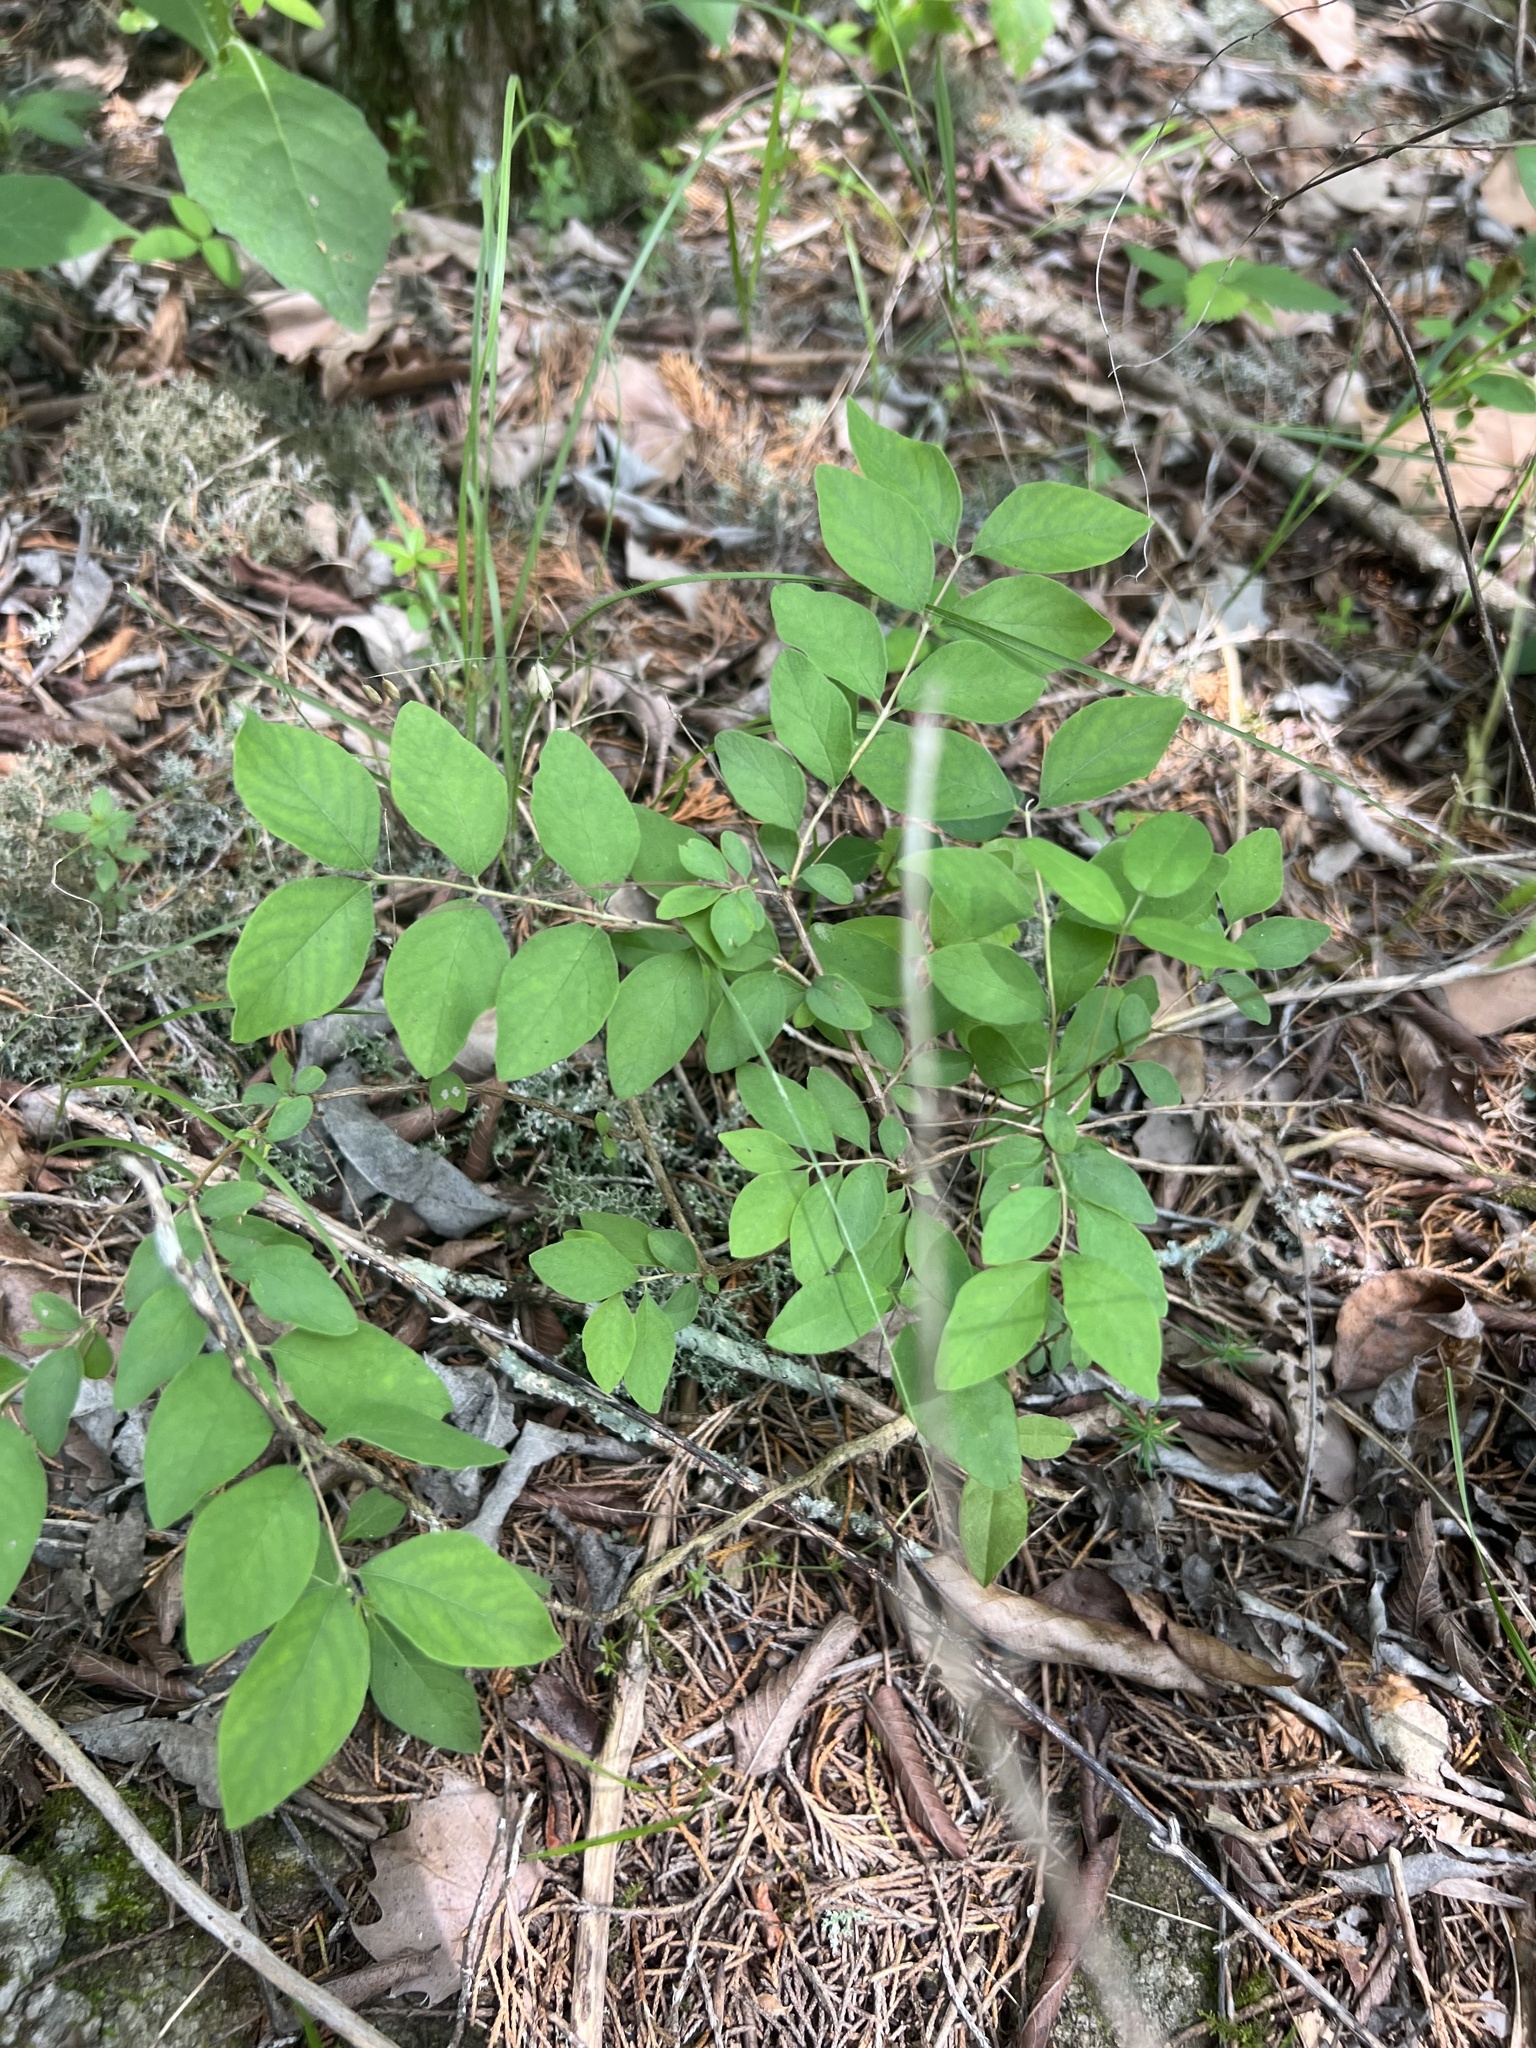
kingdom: Plantae
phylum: Tracheophyta
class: Magnoliopsida
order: Dipsacales
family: Caprifoliaceae
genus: Symphoricarpos
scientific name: Symphoricarpos orbiculatus
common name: Coralberry
